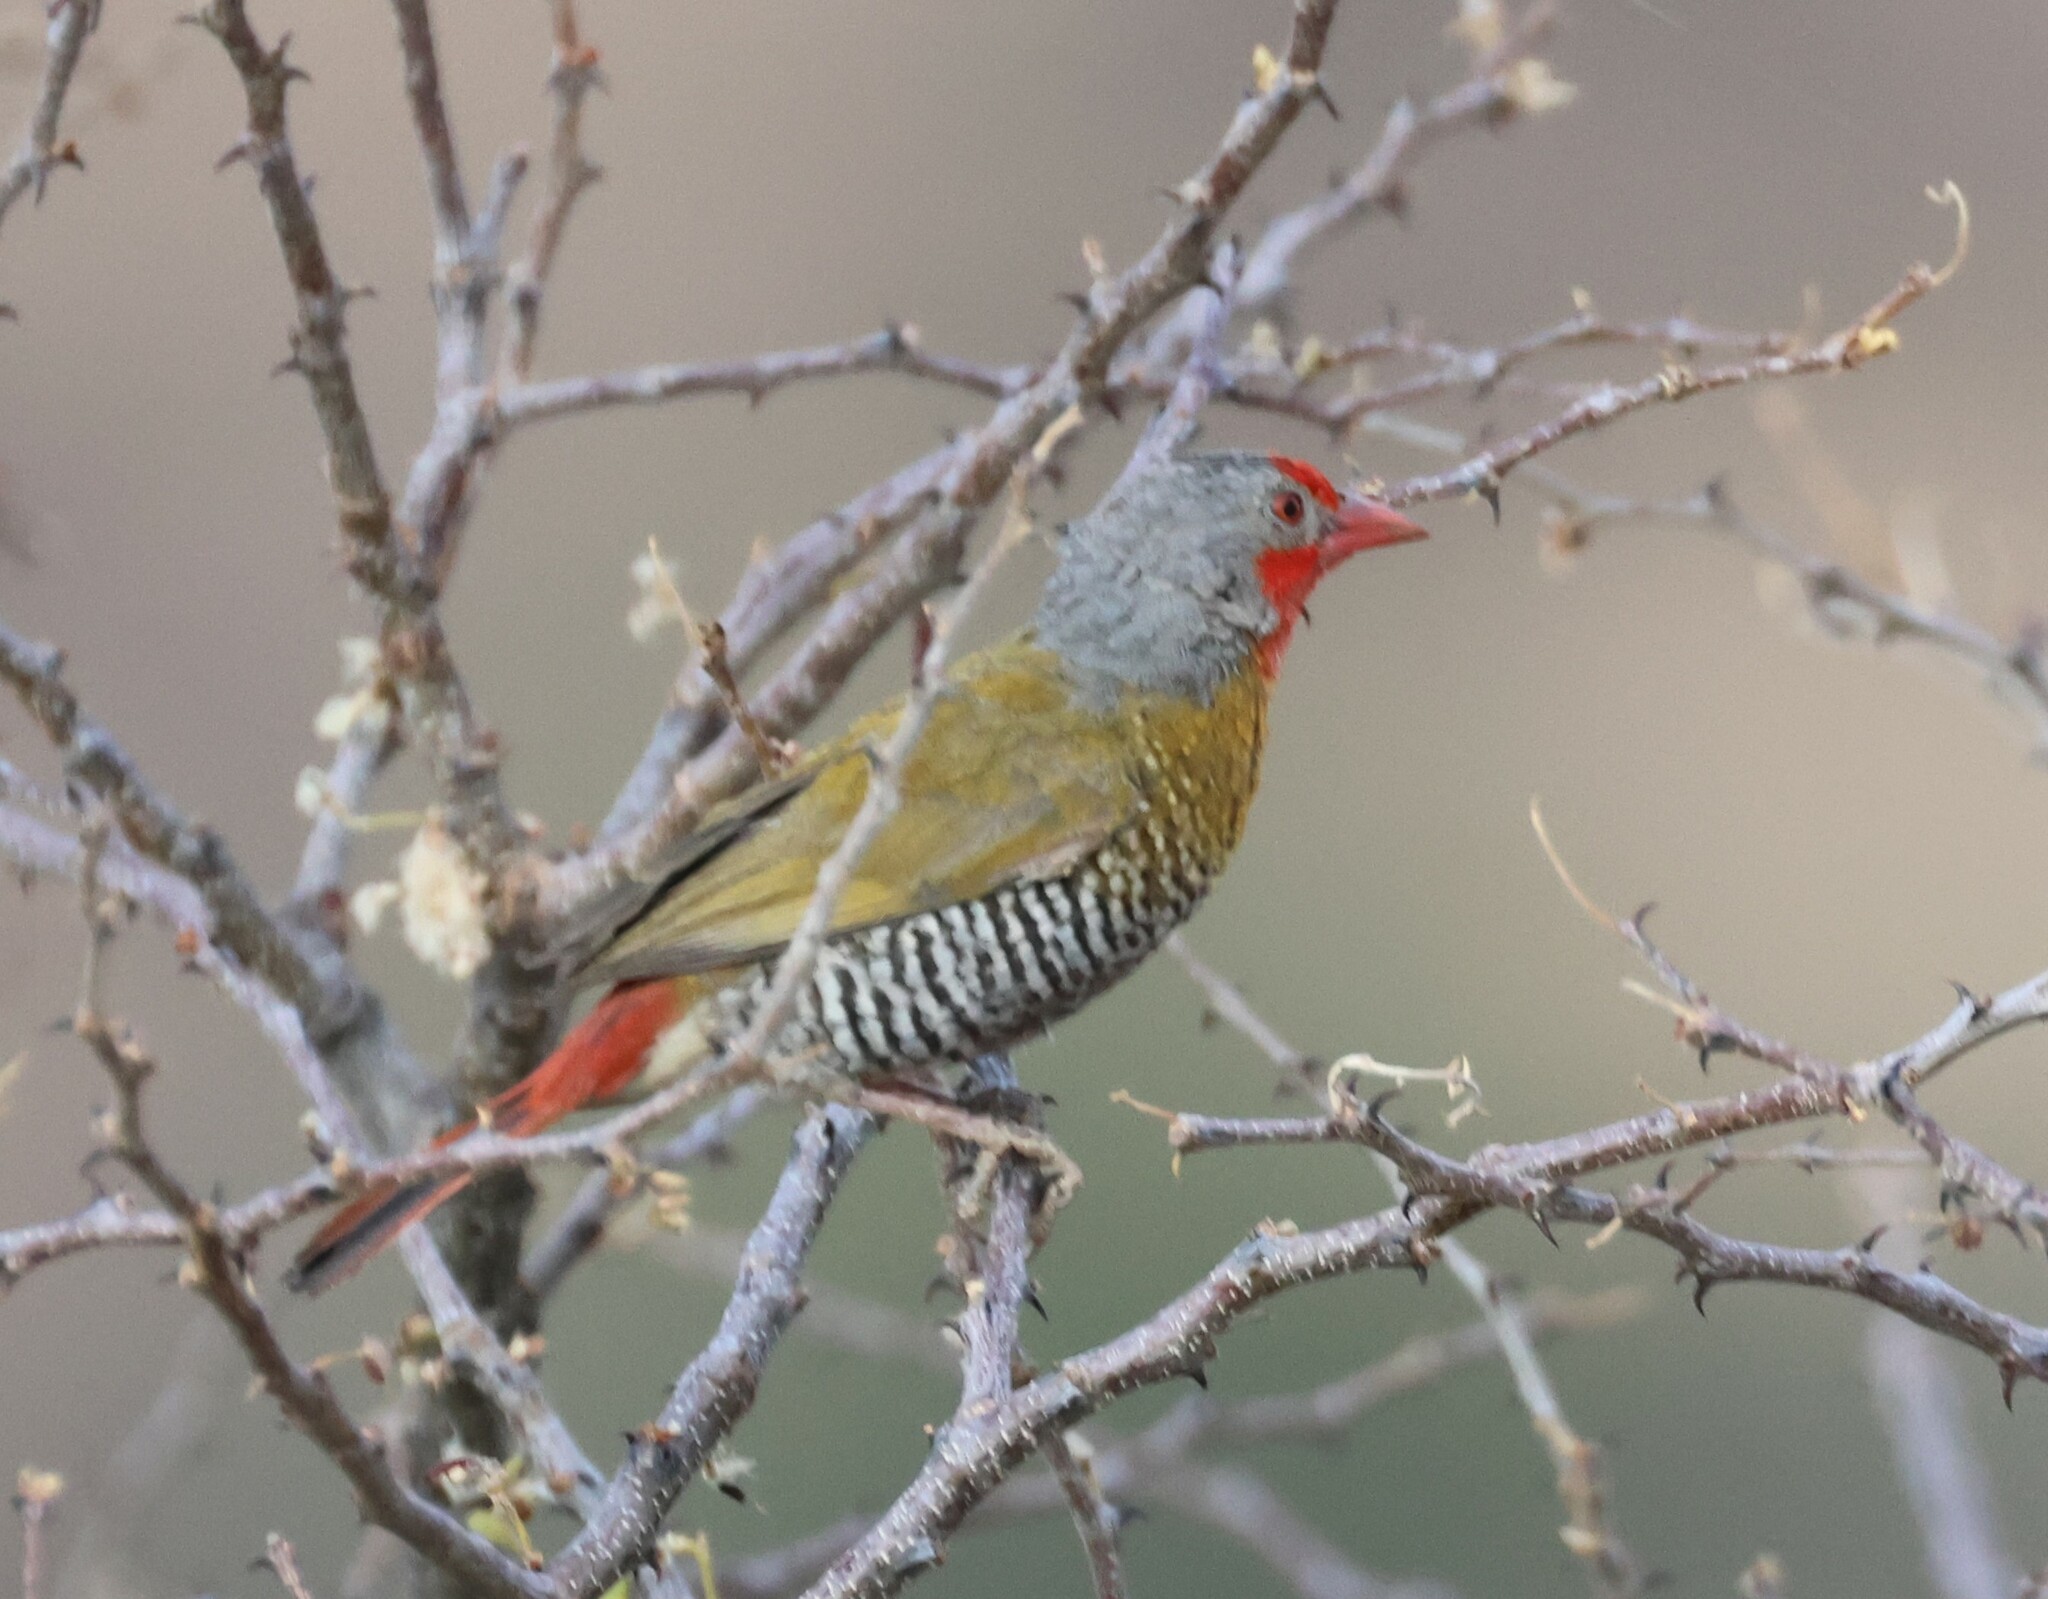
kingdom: Animalia
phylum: Chordata
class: Aves
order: Passeriformes
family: Estrildidae
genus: Pytilia
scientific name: Pytilia melba
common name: Green-winged pytilia
